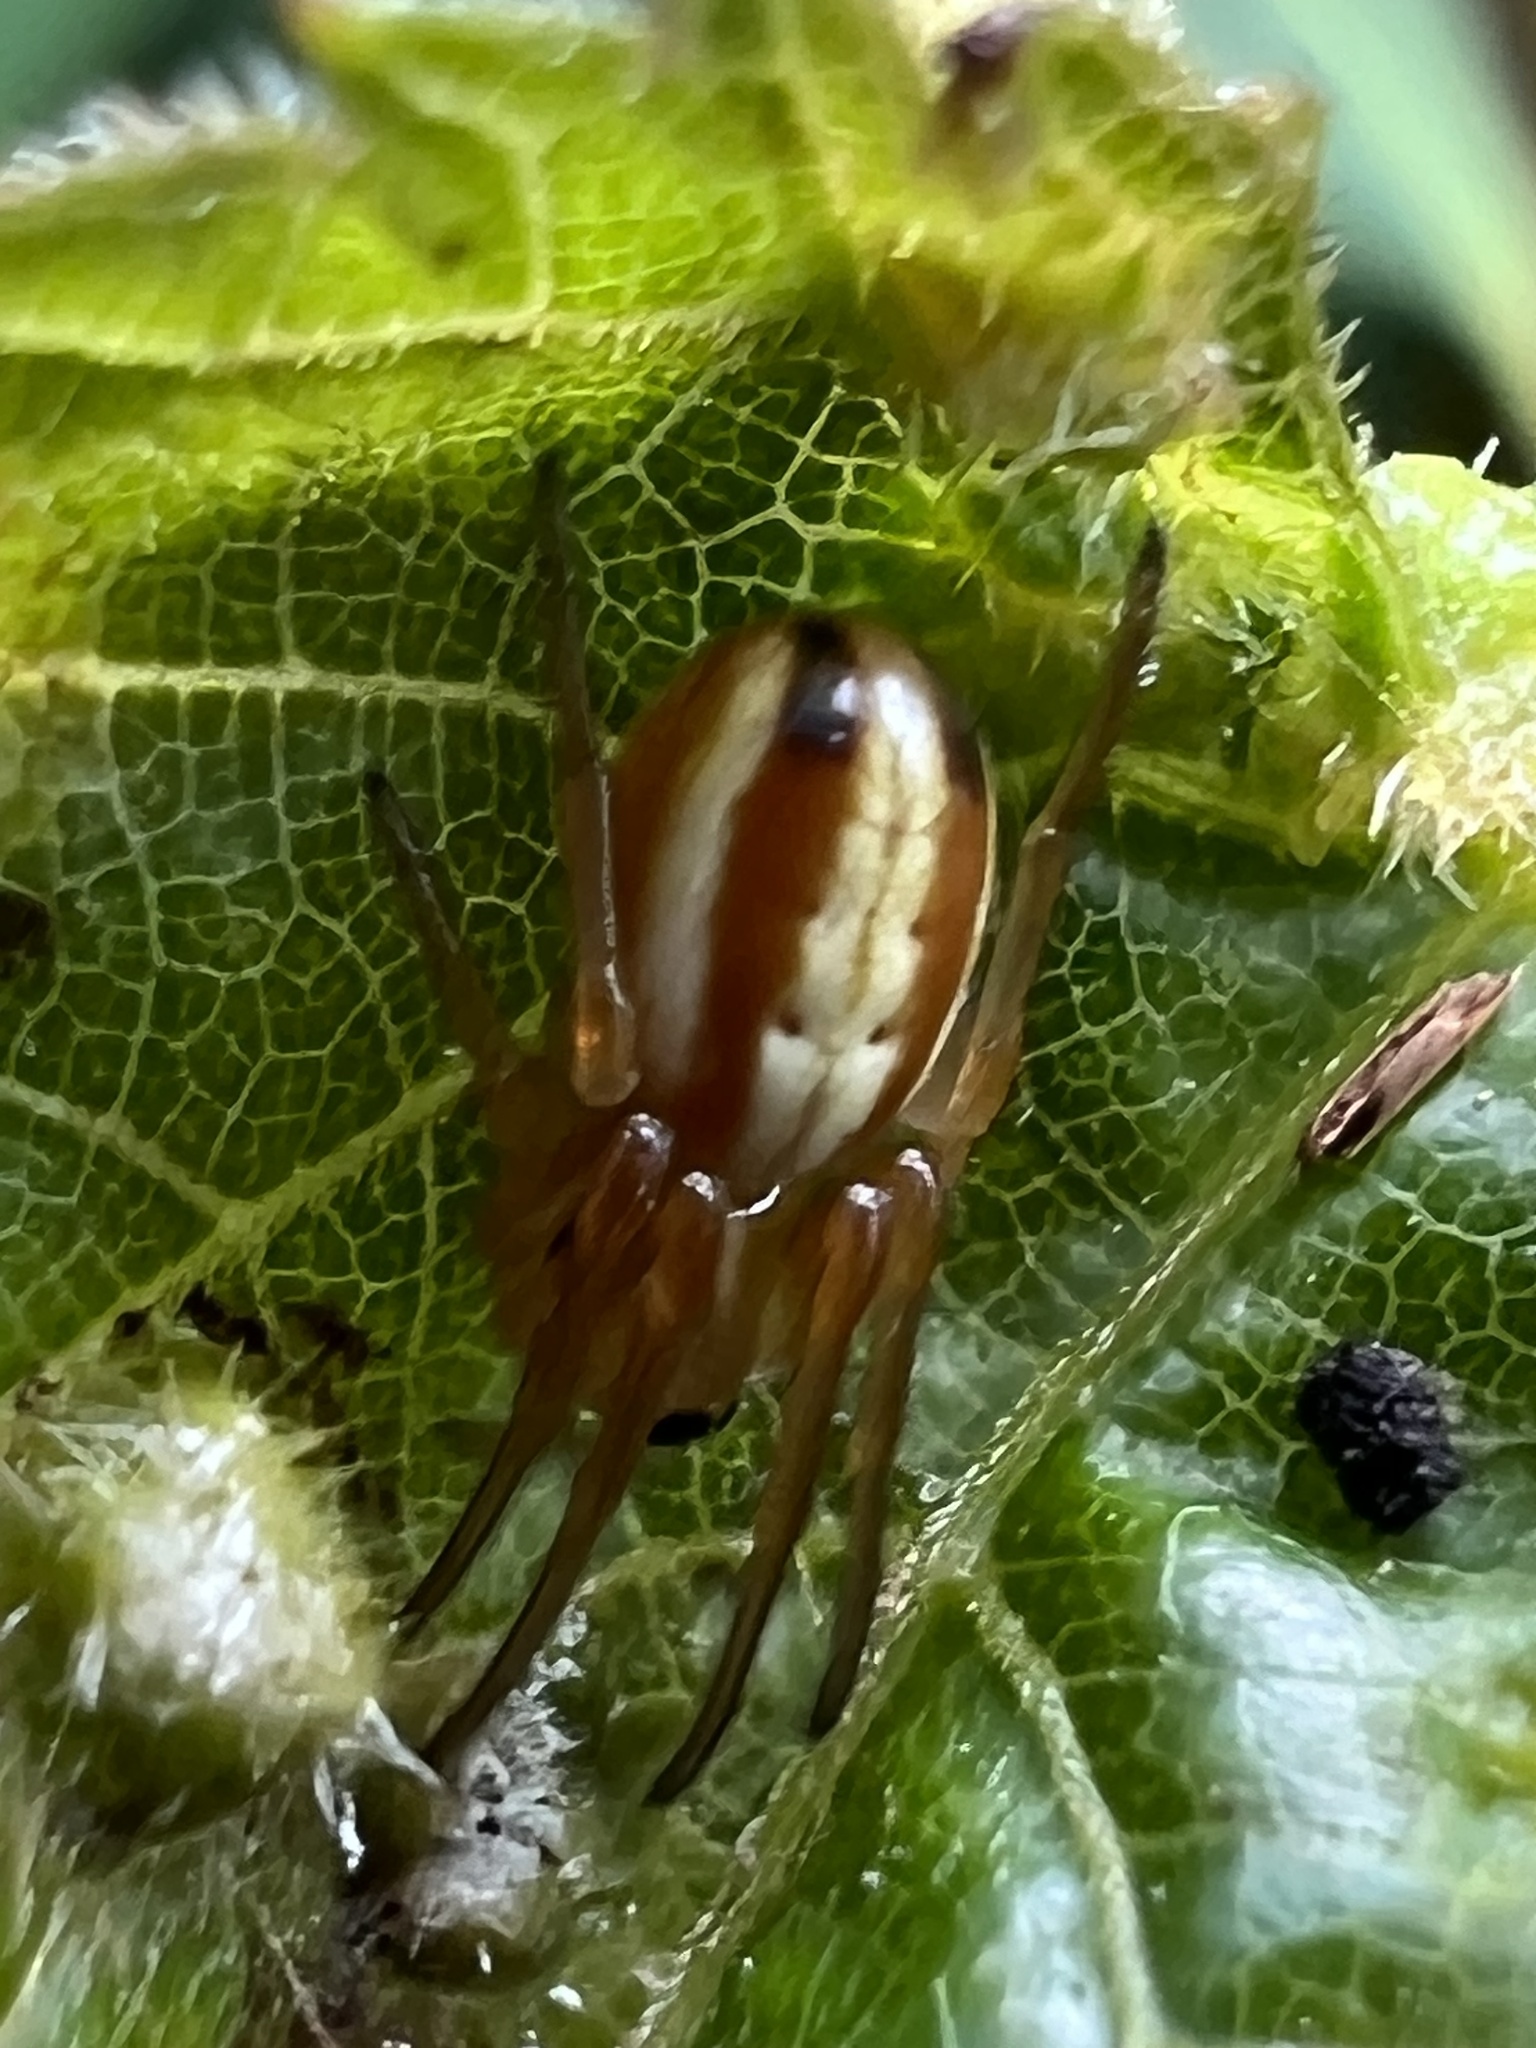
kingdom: Animalia
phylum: Arthropoda
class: Arachnida
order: Araneae
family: Araneidae
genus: Araneus
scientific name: Araneus pratensis
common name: Openfield orbweaver
